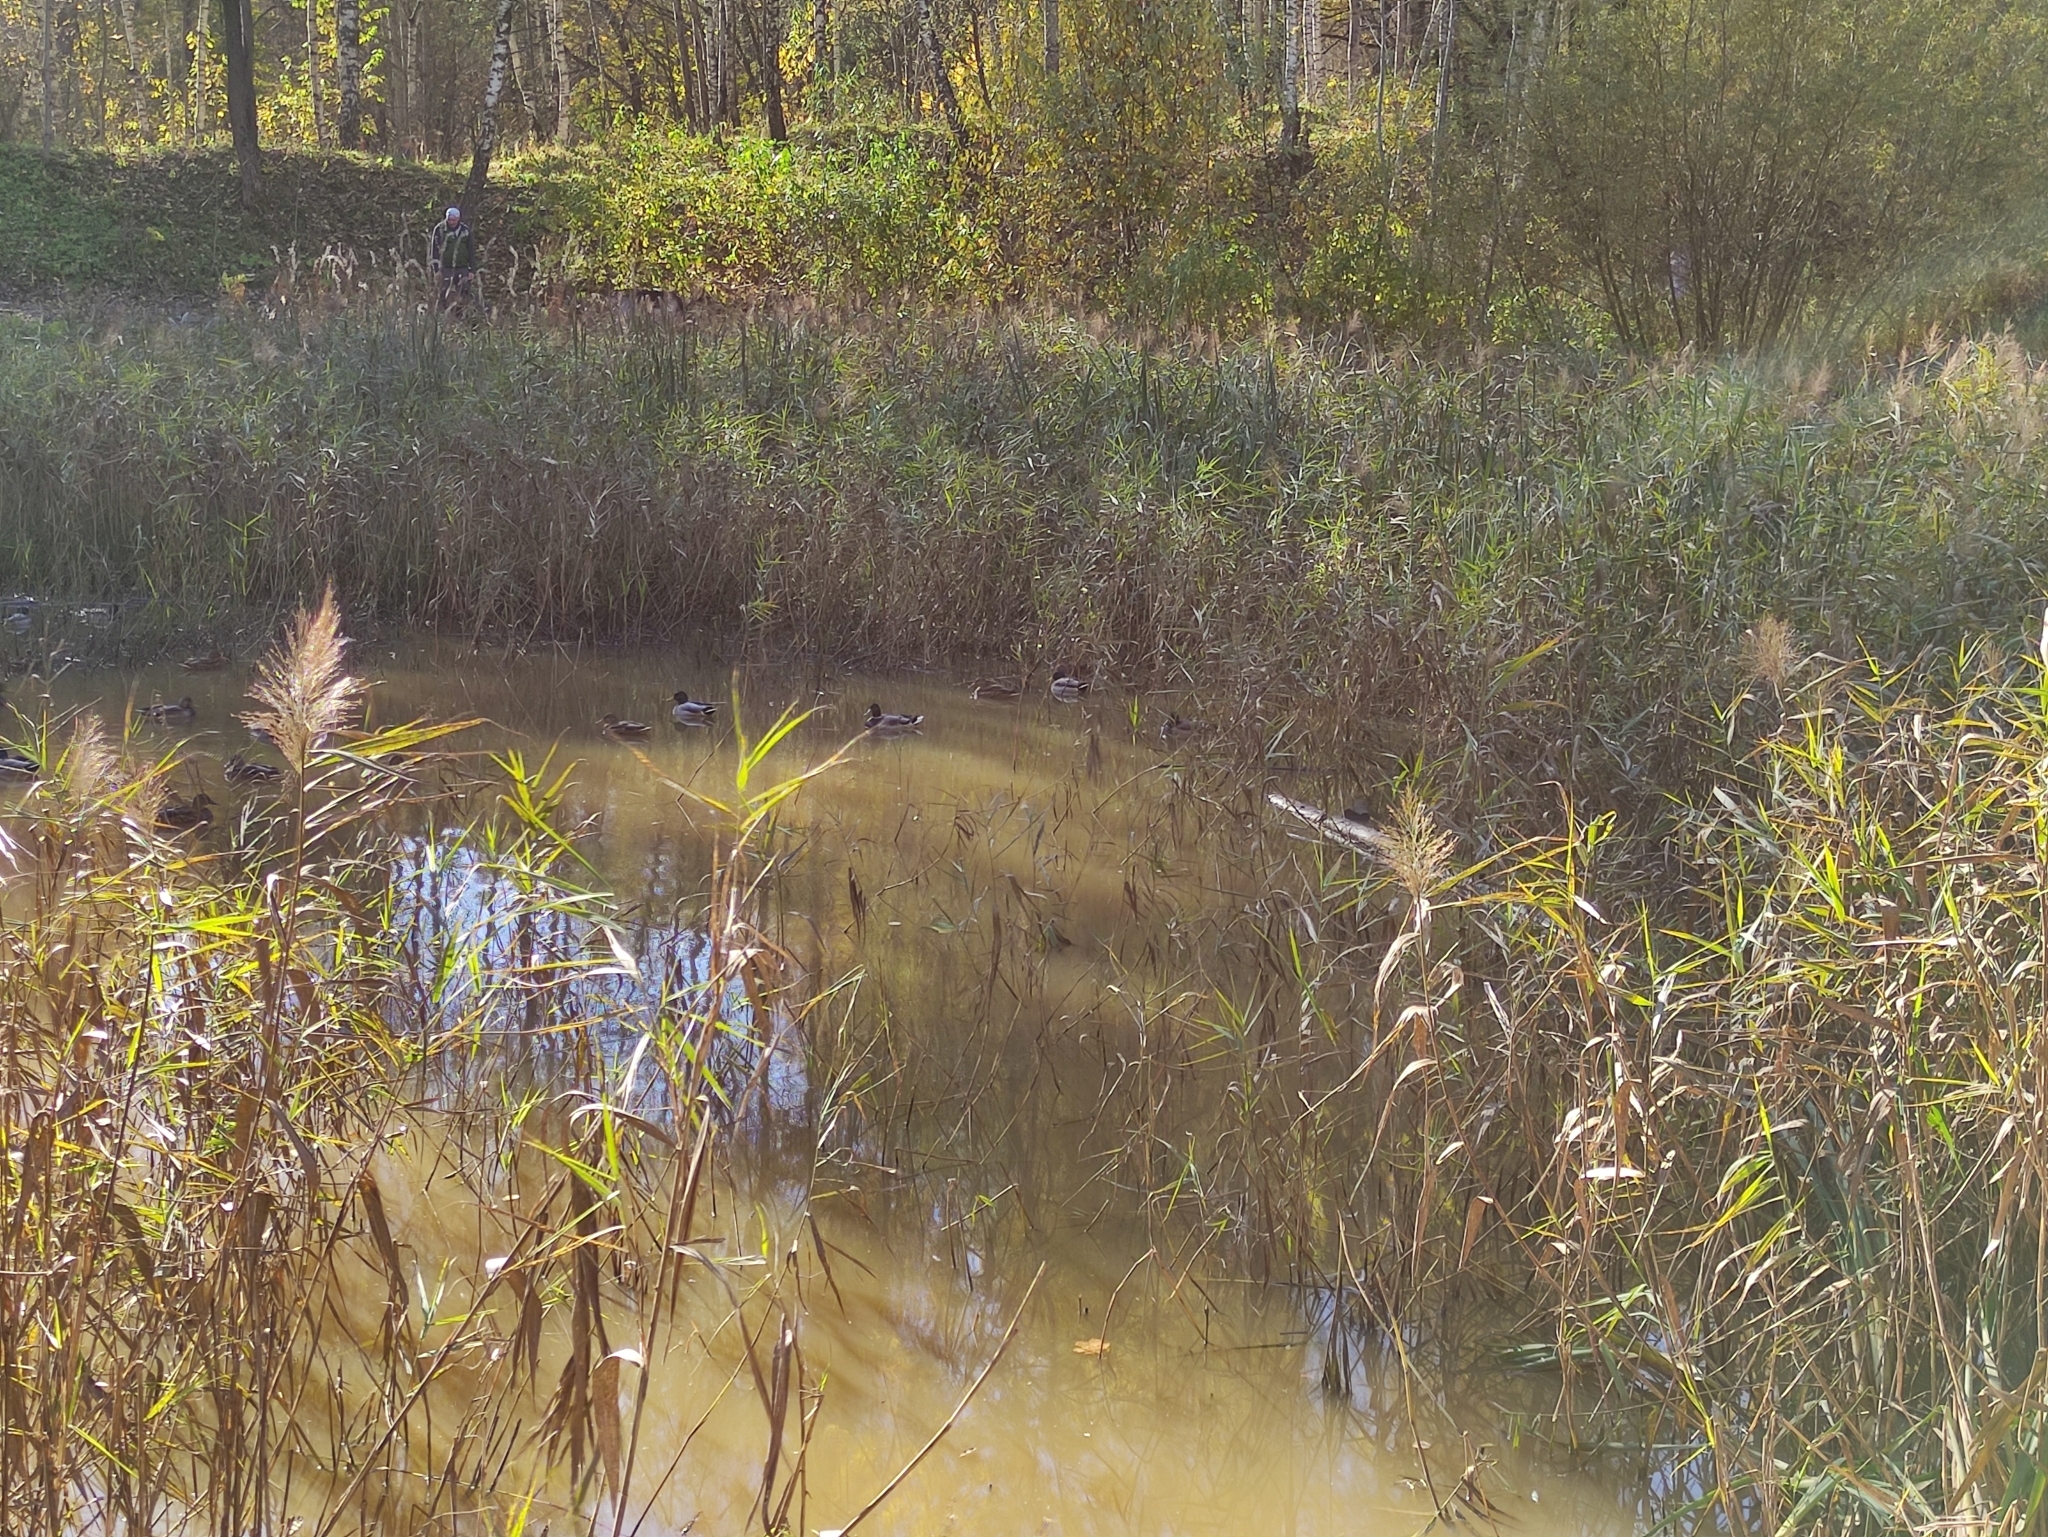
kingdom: Animalia
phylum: Chordata
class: Aves
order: Anseriformes
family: Anatidae
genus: Anas
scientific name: Anas platyrhynchos
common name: Mallard
